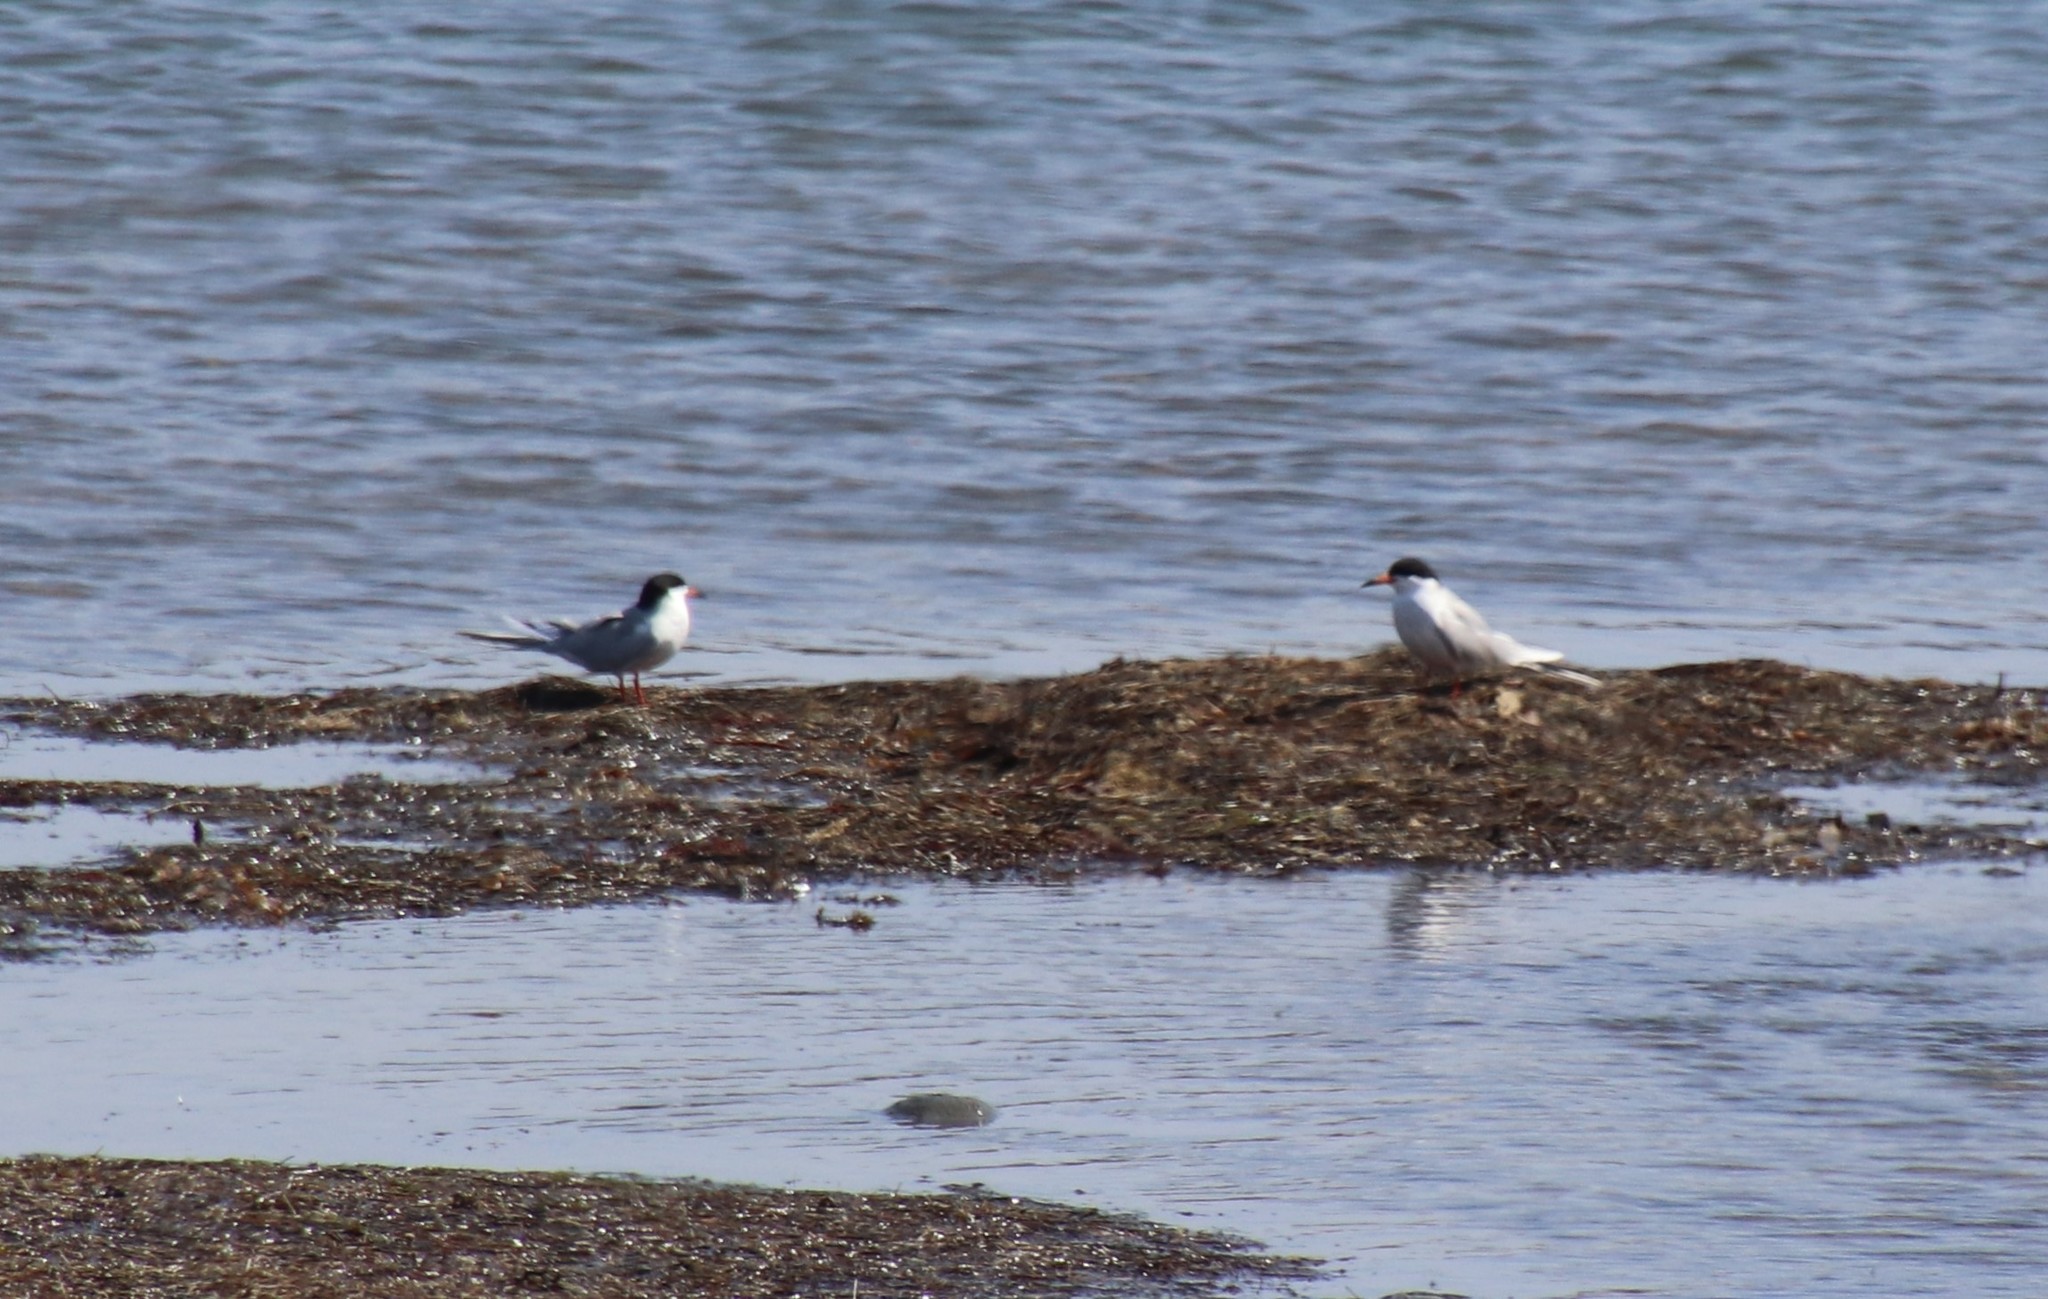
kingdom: Animalia
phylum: Chordata
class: Aves
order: Charadriiformes
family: Laridae
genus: Sterna
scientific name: Sterna forsteri
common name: Forster's tern
